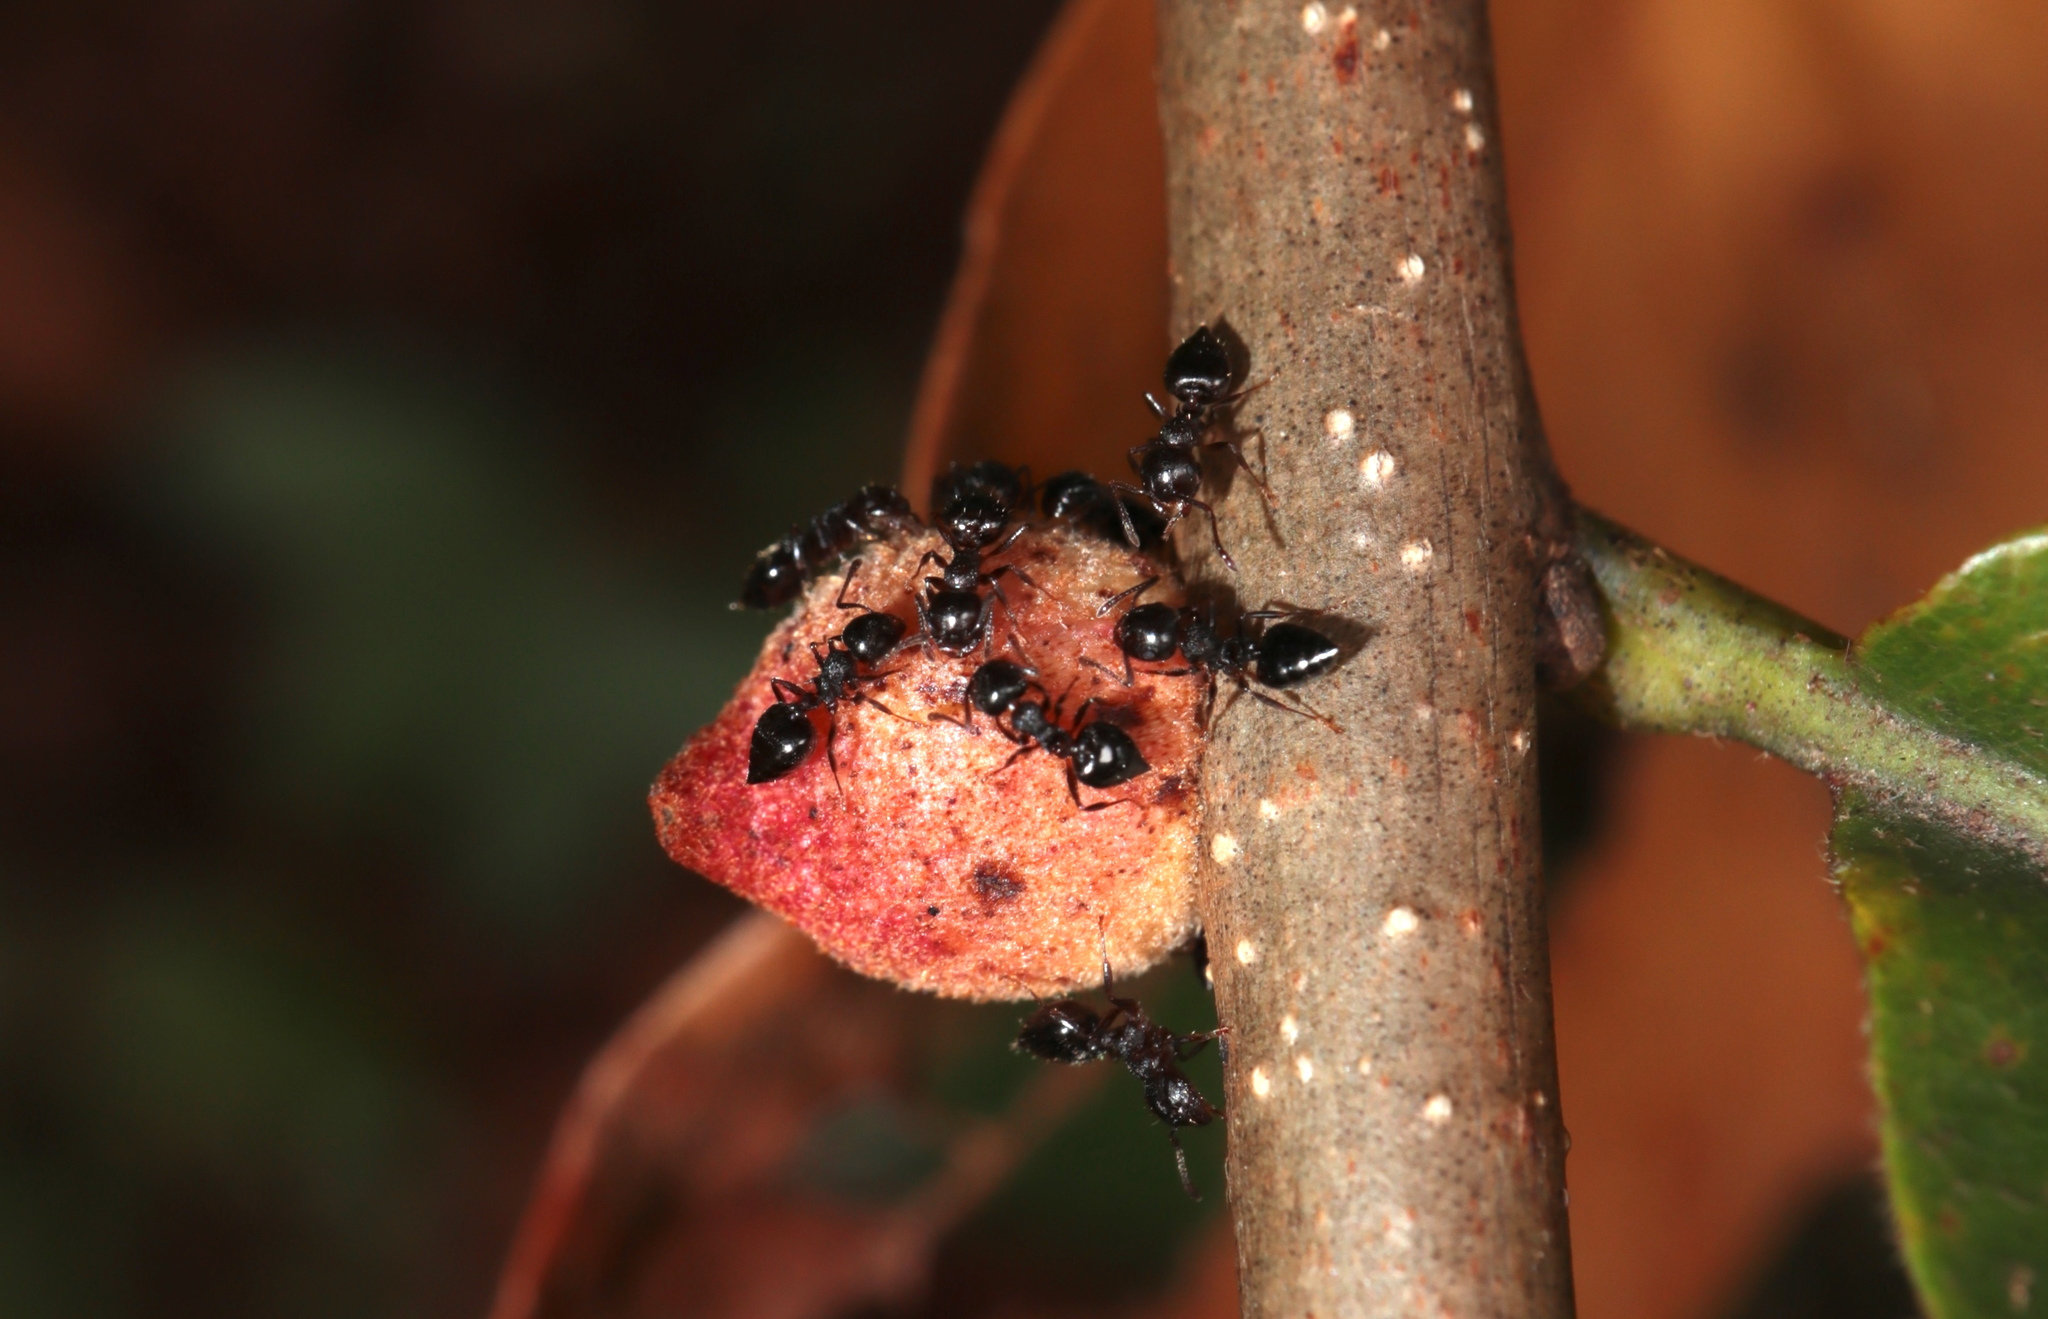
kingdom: Animalia
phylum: Arthropoda
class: Insecta
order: Hymenoptera
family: Cynipidae
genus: Disholcaspis
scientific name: Disholcaspis
